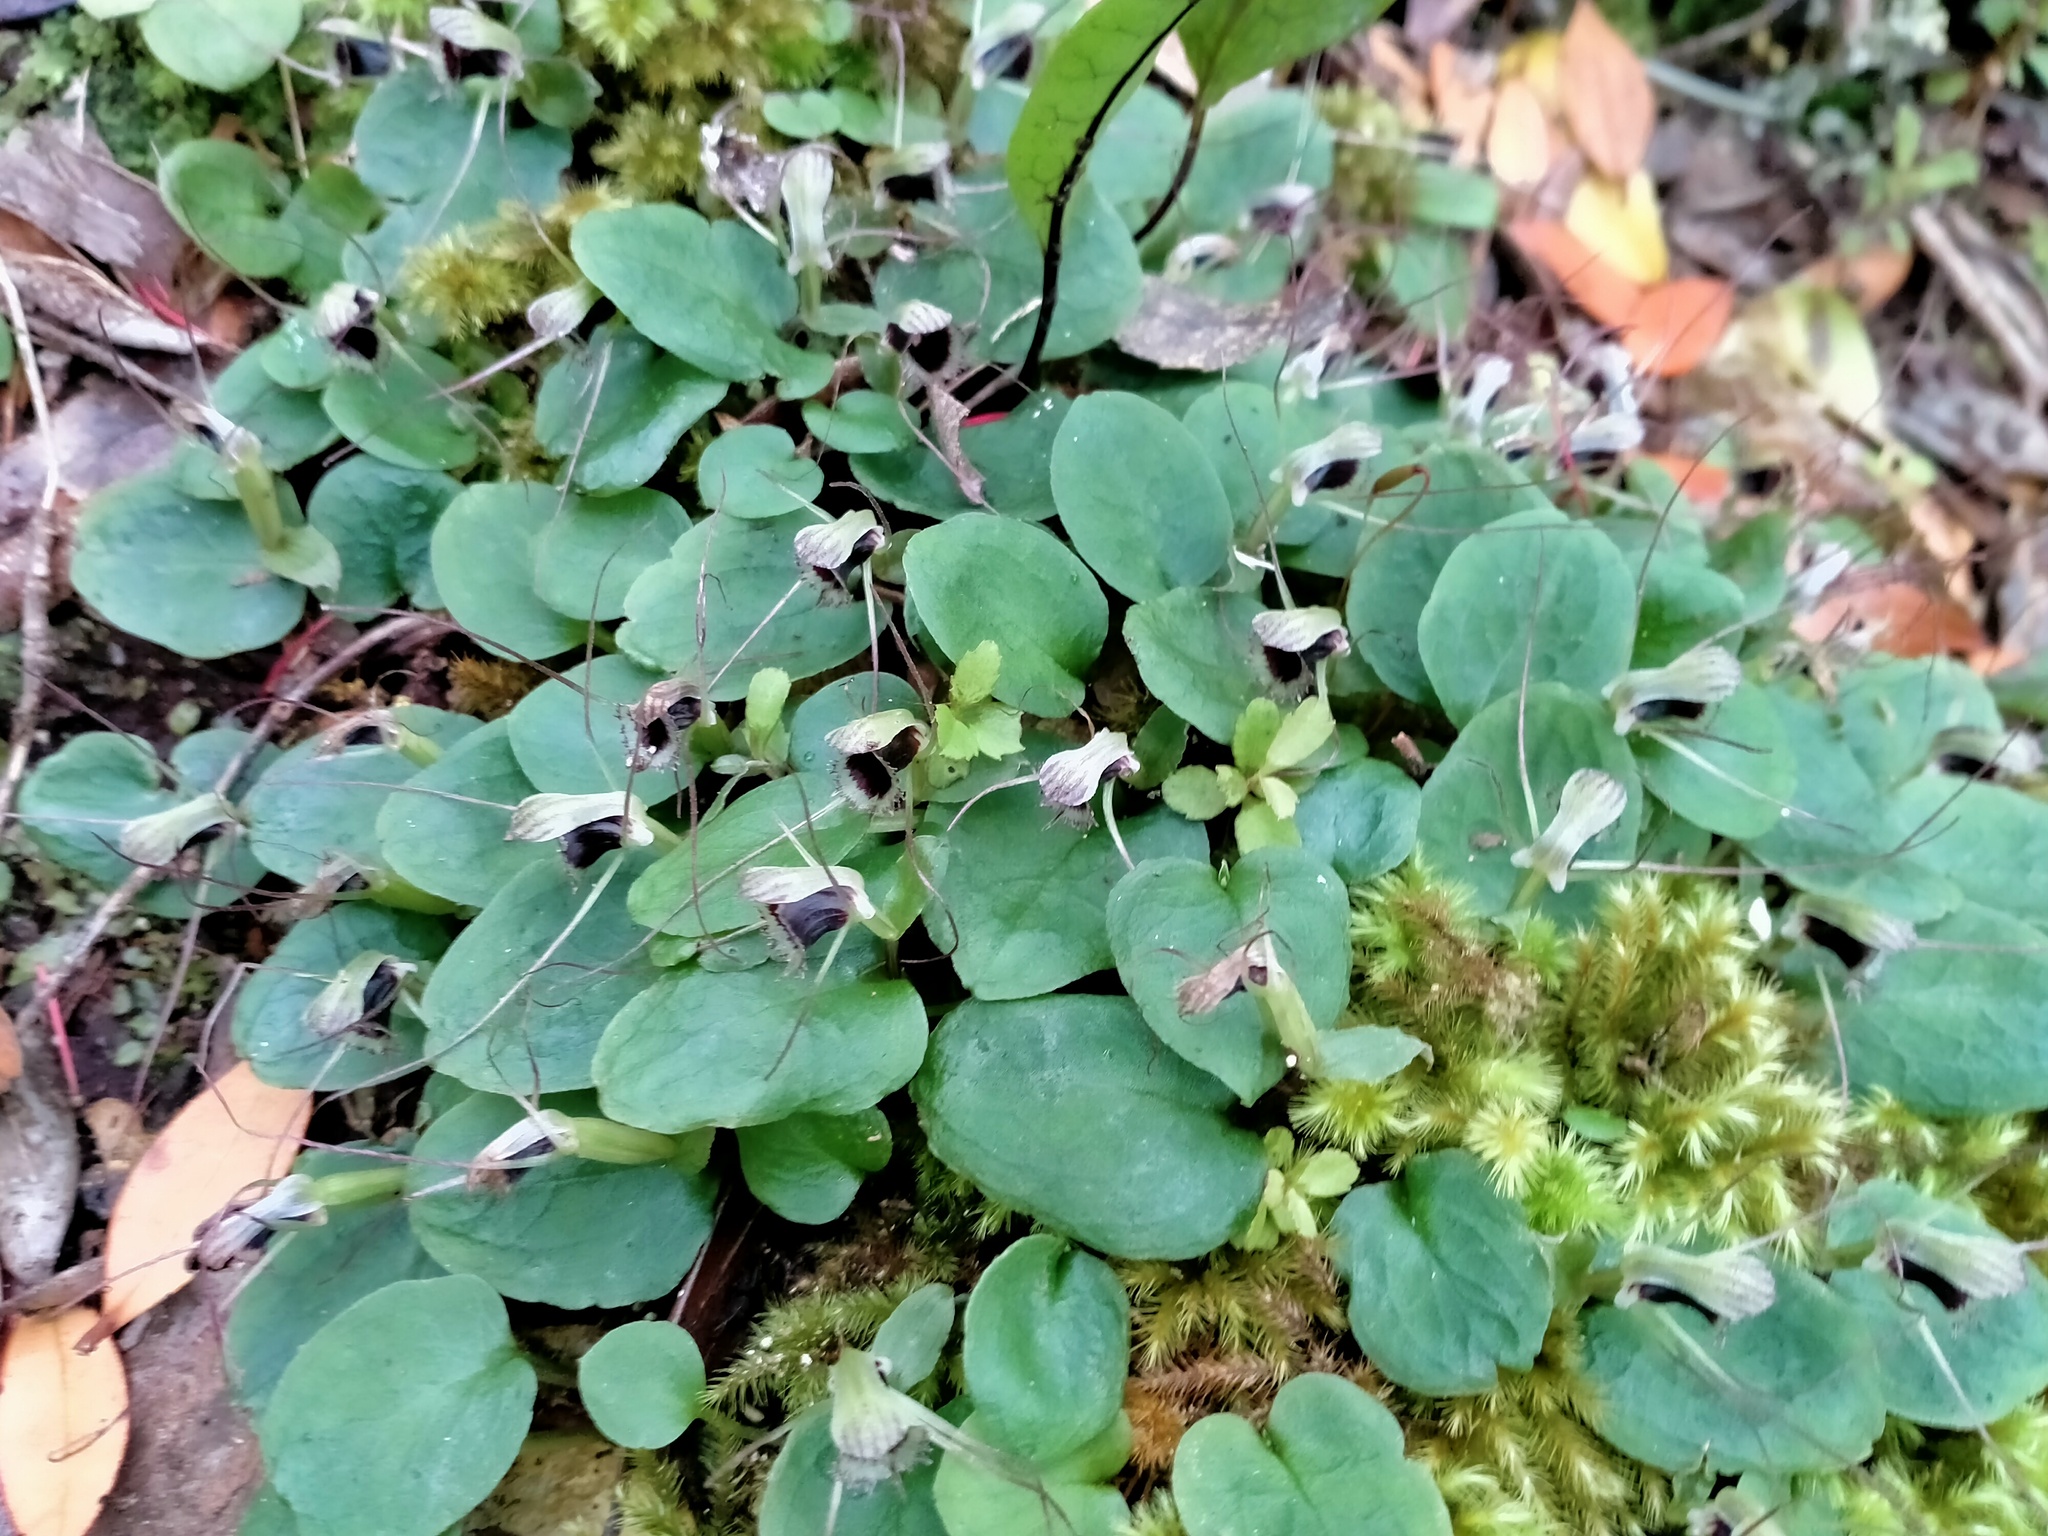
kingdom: Plantae
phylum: Tracheophyta
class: Liliopsida
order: Asparagales
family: Orchidaceae
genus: Corybas
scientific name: Corybas oblongus
